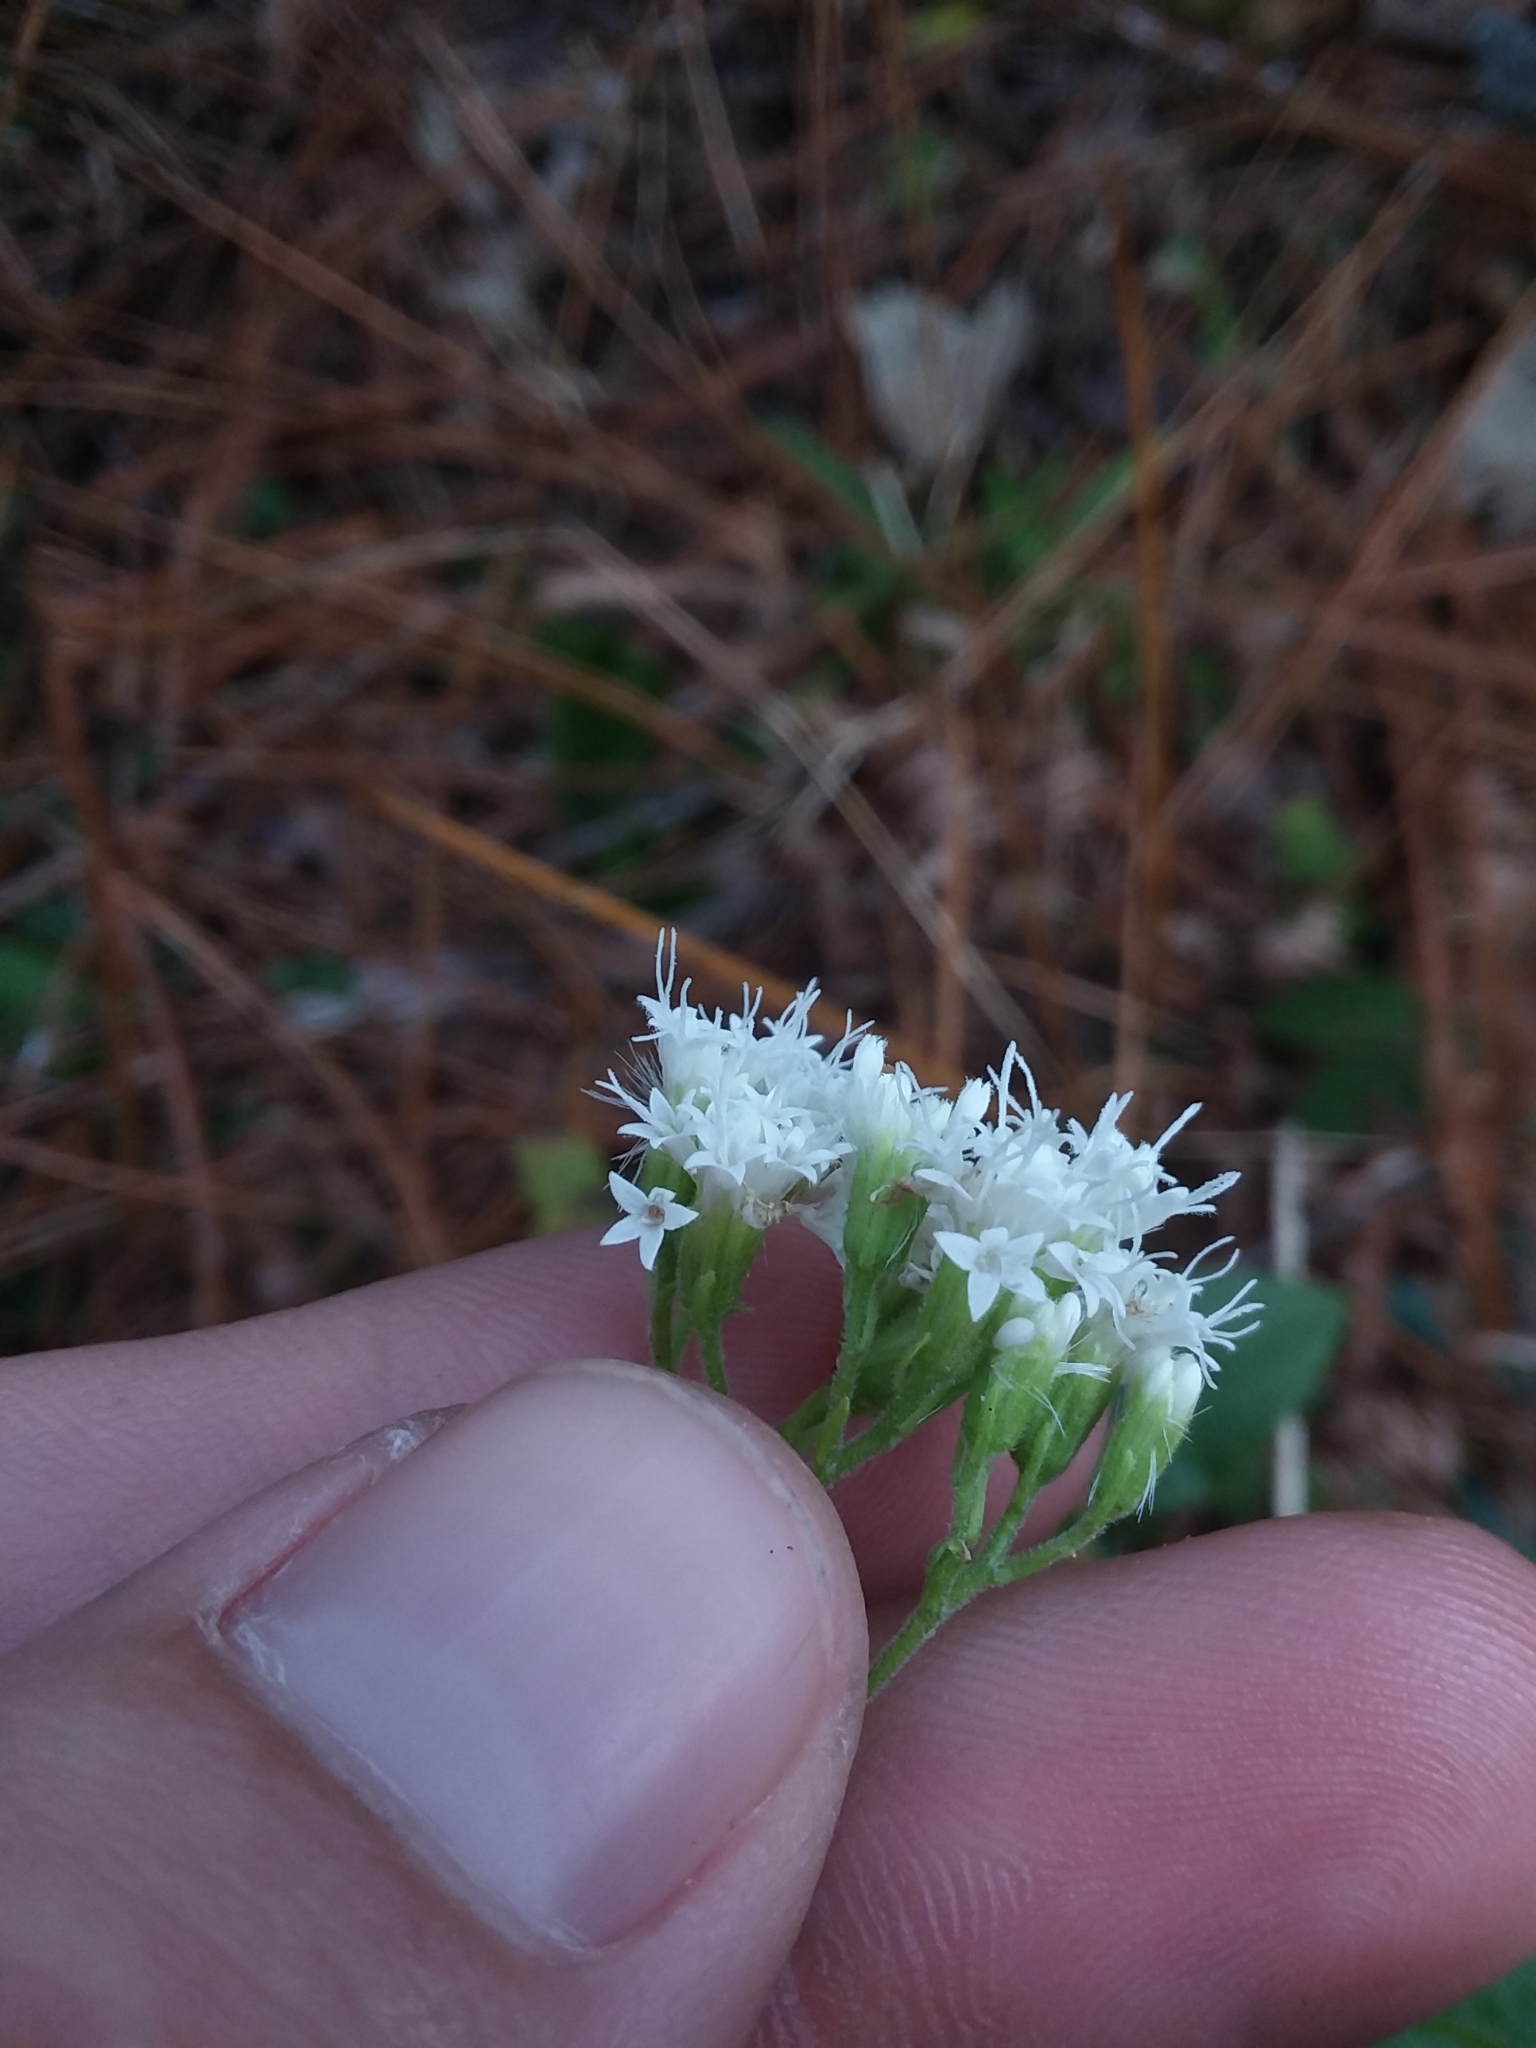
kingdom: Plantae
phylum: Tracheophyta
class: Magnoliopsida
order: Asterales
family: Asteraceae
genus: Ageratina
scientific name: Ageratina aromatica
